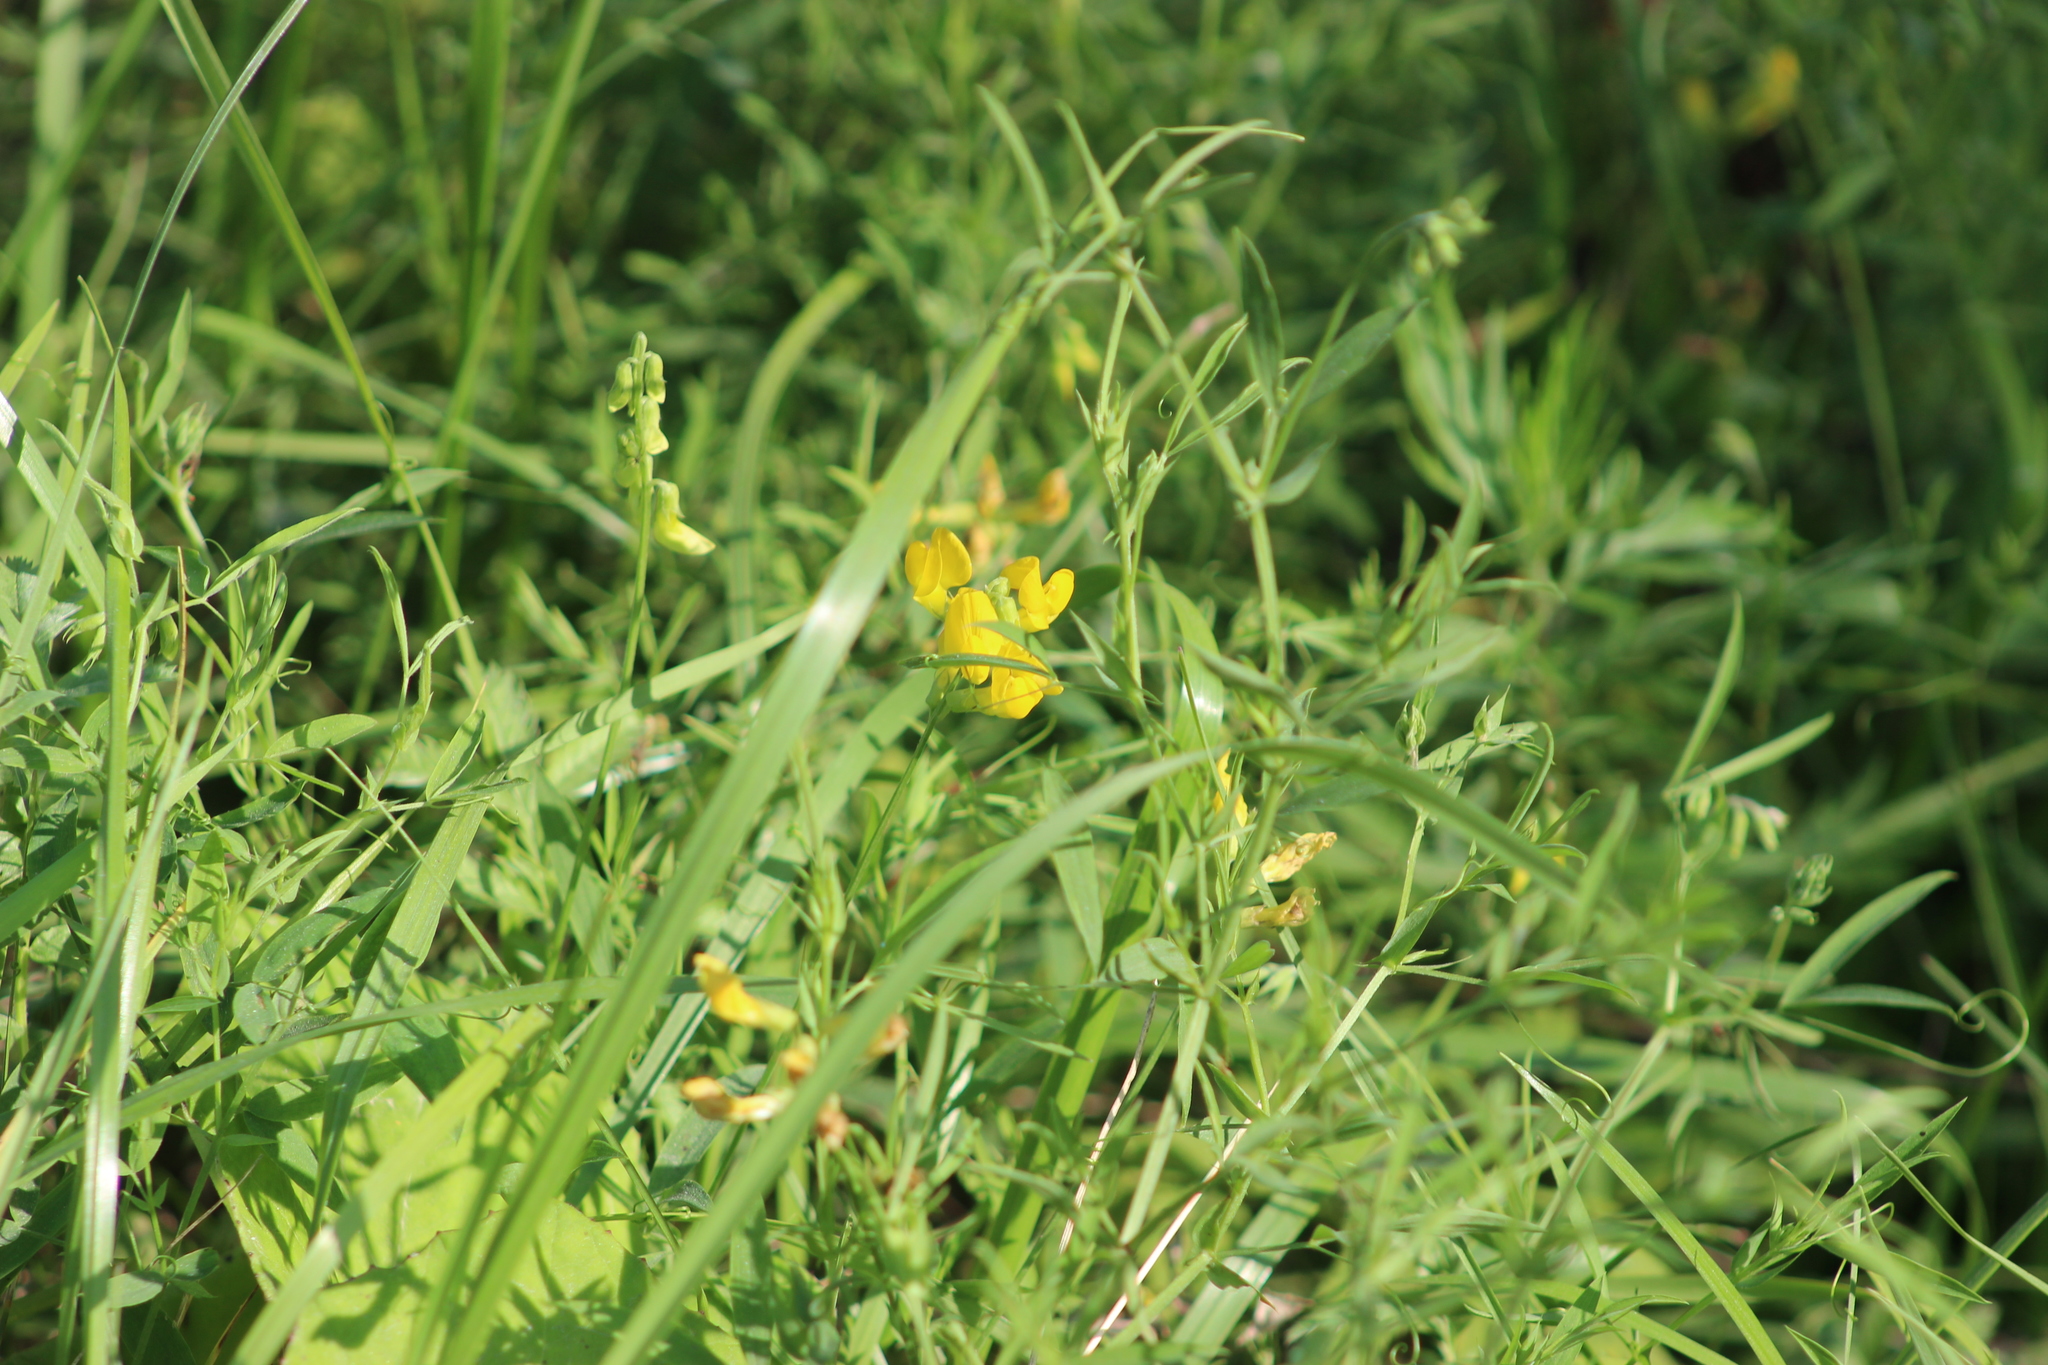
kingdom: Plantae
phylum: Tracheophyta
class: Magnoliopsida
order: Fabales
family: Fabaceae
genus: Lathyrus
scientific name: Lathyrus pratensis
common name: Meadow vetchling
